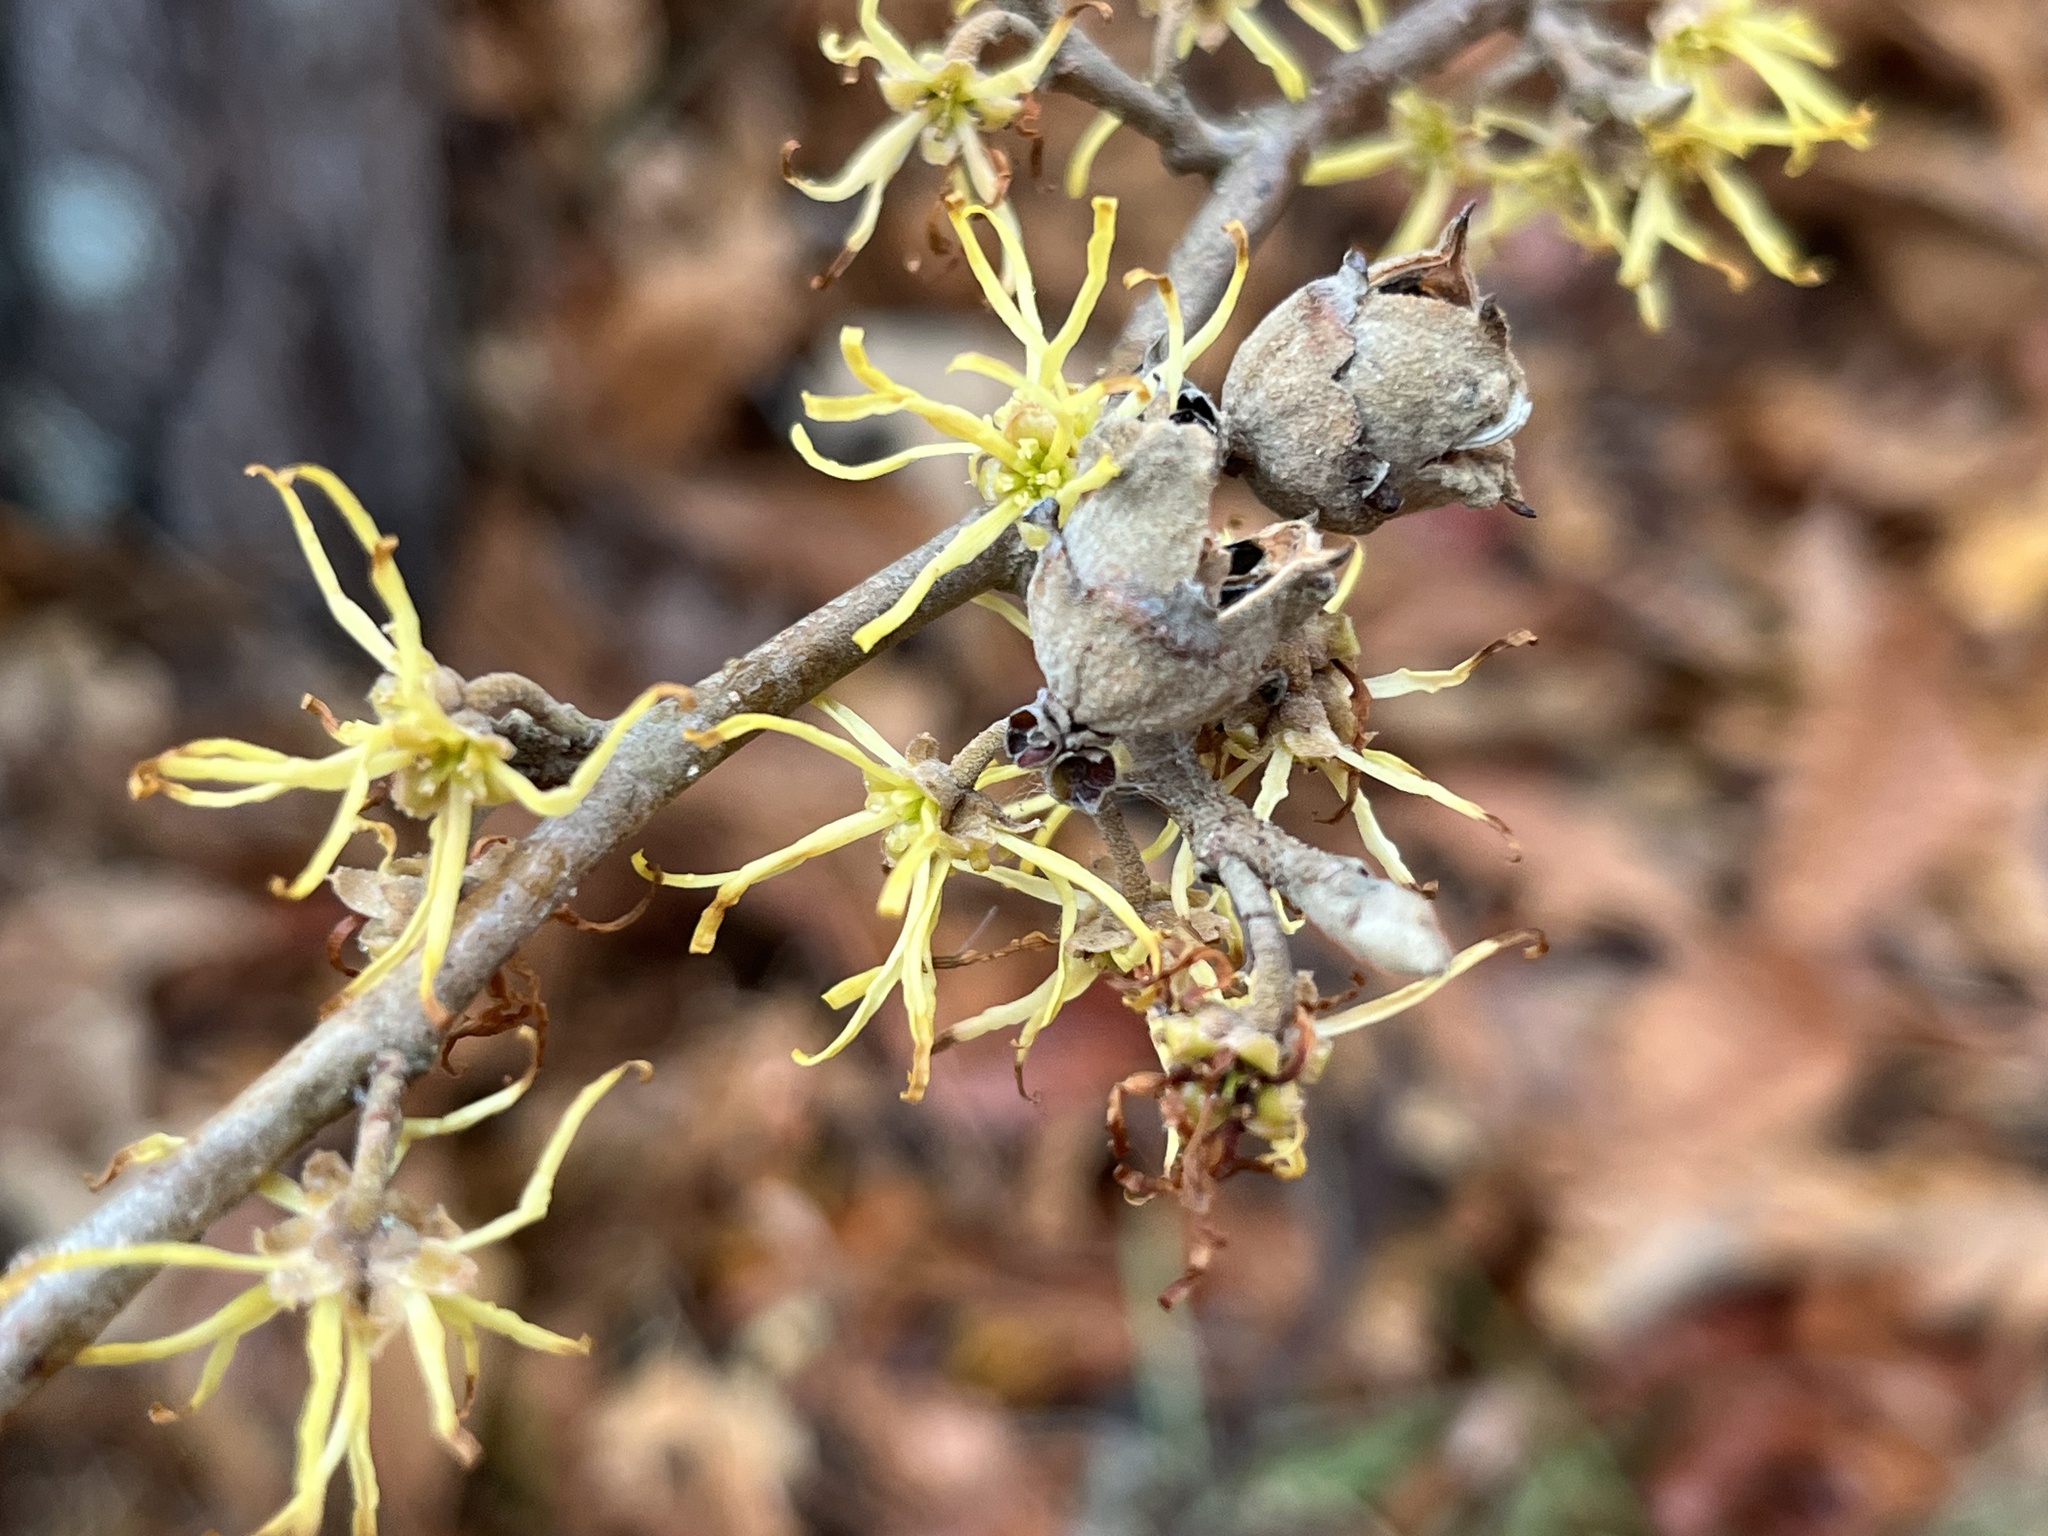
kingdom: Plantae
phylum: Tracheophyta
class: Magnoliopsida
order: Saxifragales
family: Hamamelidaceae
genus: Hamamelis
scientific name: Hamamelis virginiana
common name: Witch-hazel
